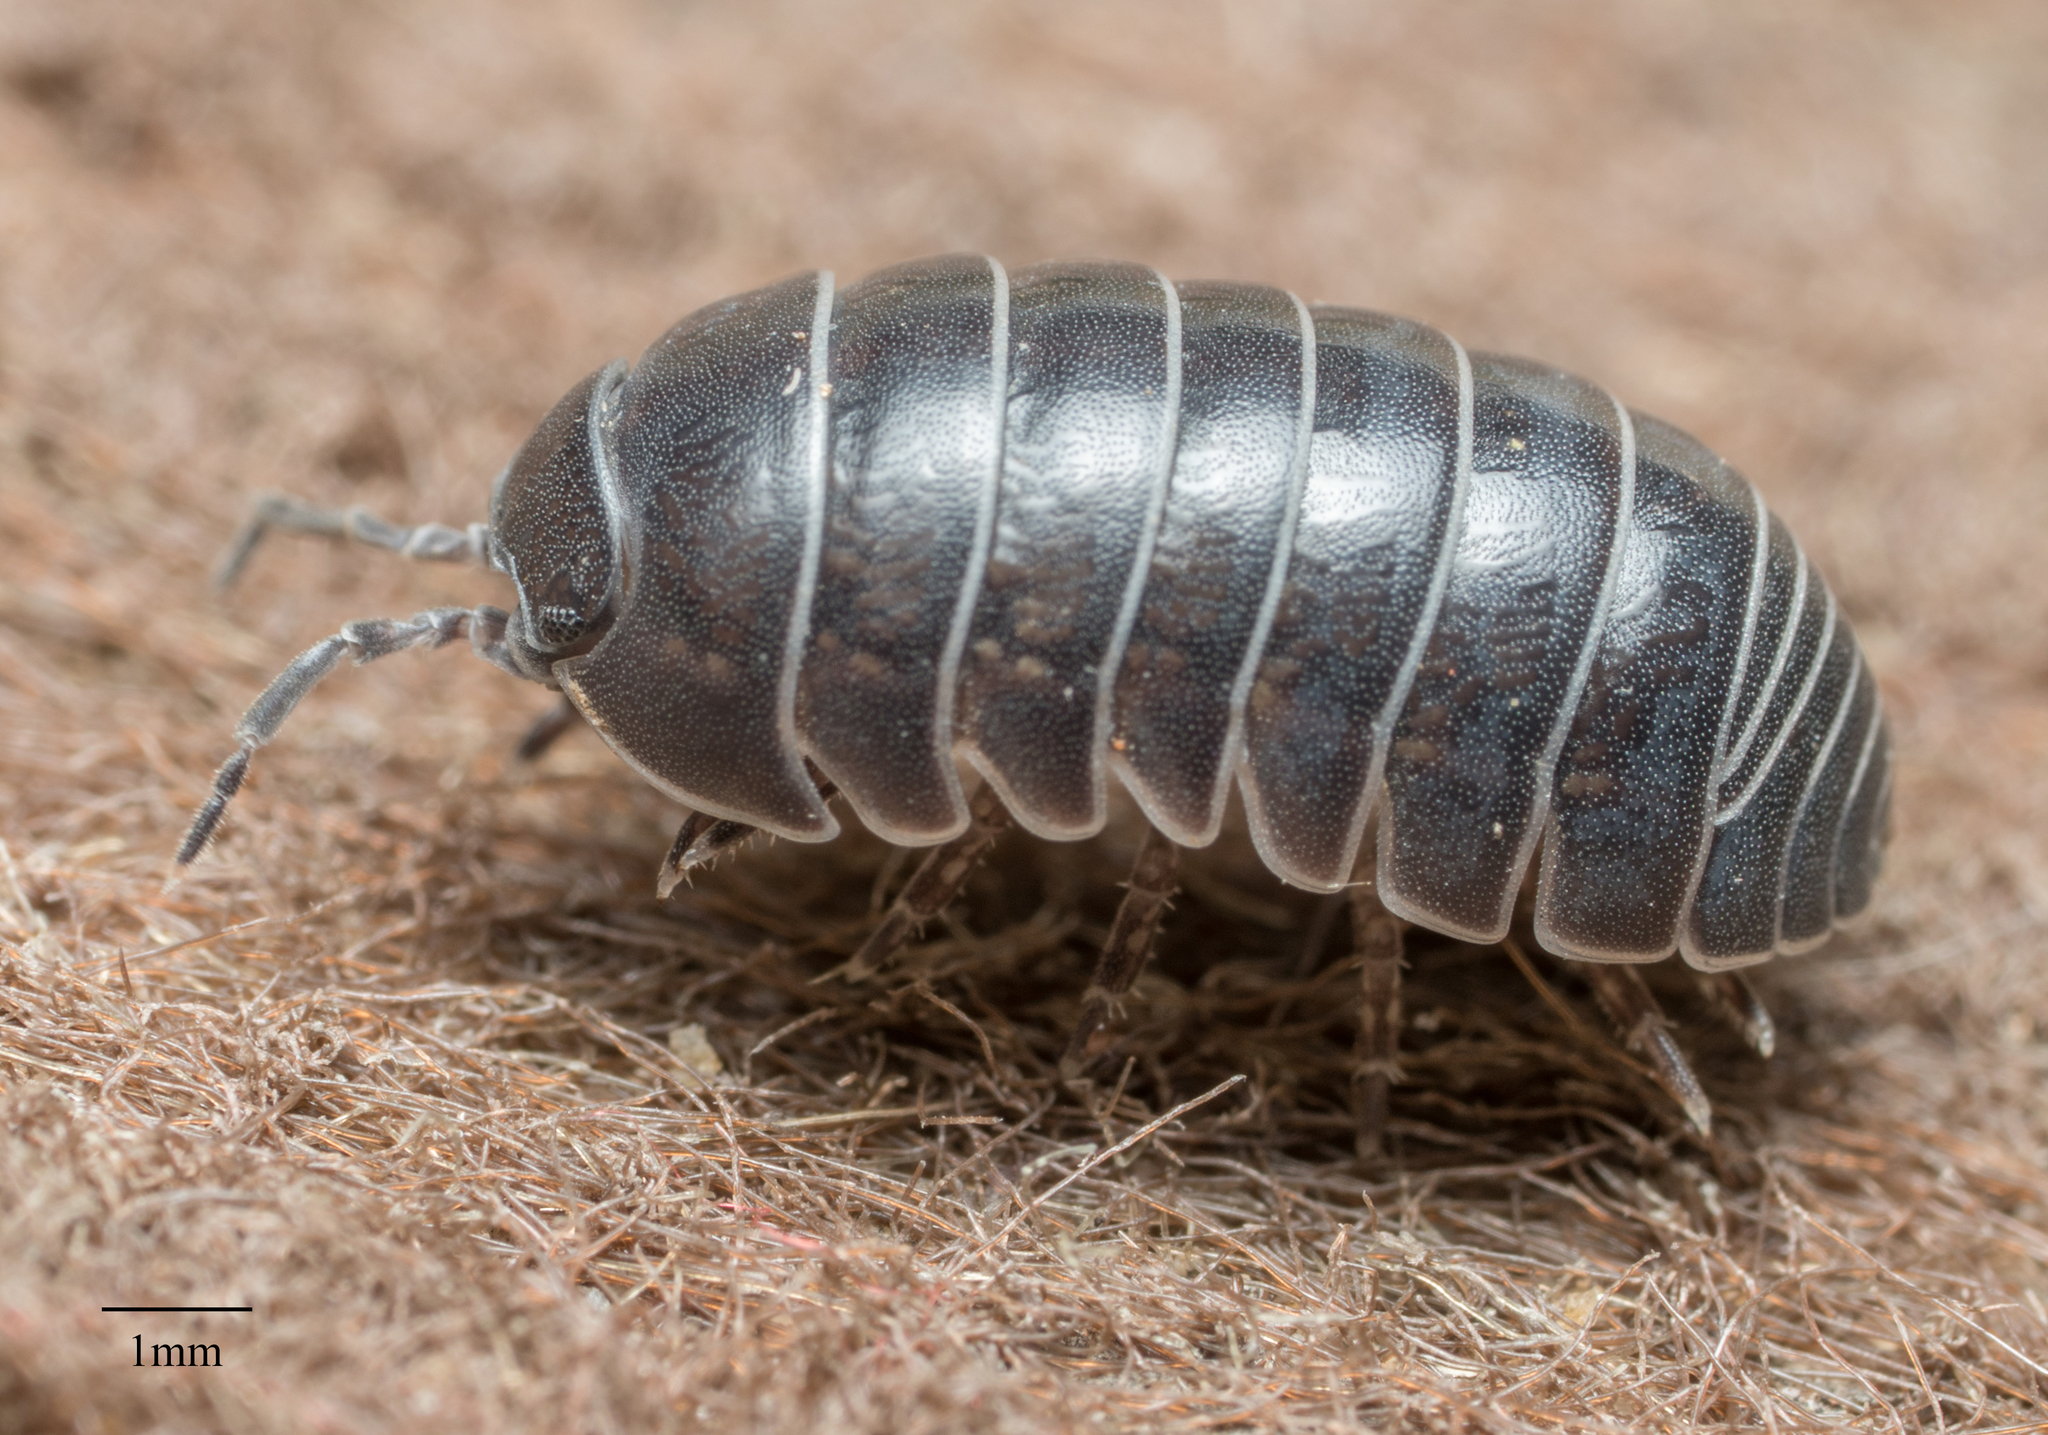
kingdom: Animalia
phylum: Arthropoda
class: Malacostraca
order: Isopoda
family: Armadillidiidae
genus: Armadillidium
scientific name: Armadillidium vulgare
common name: Common pill woodlouse
